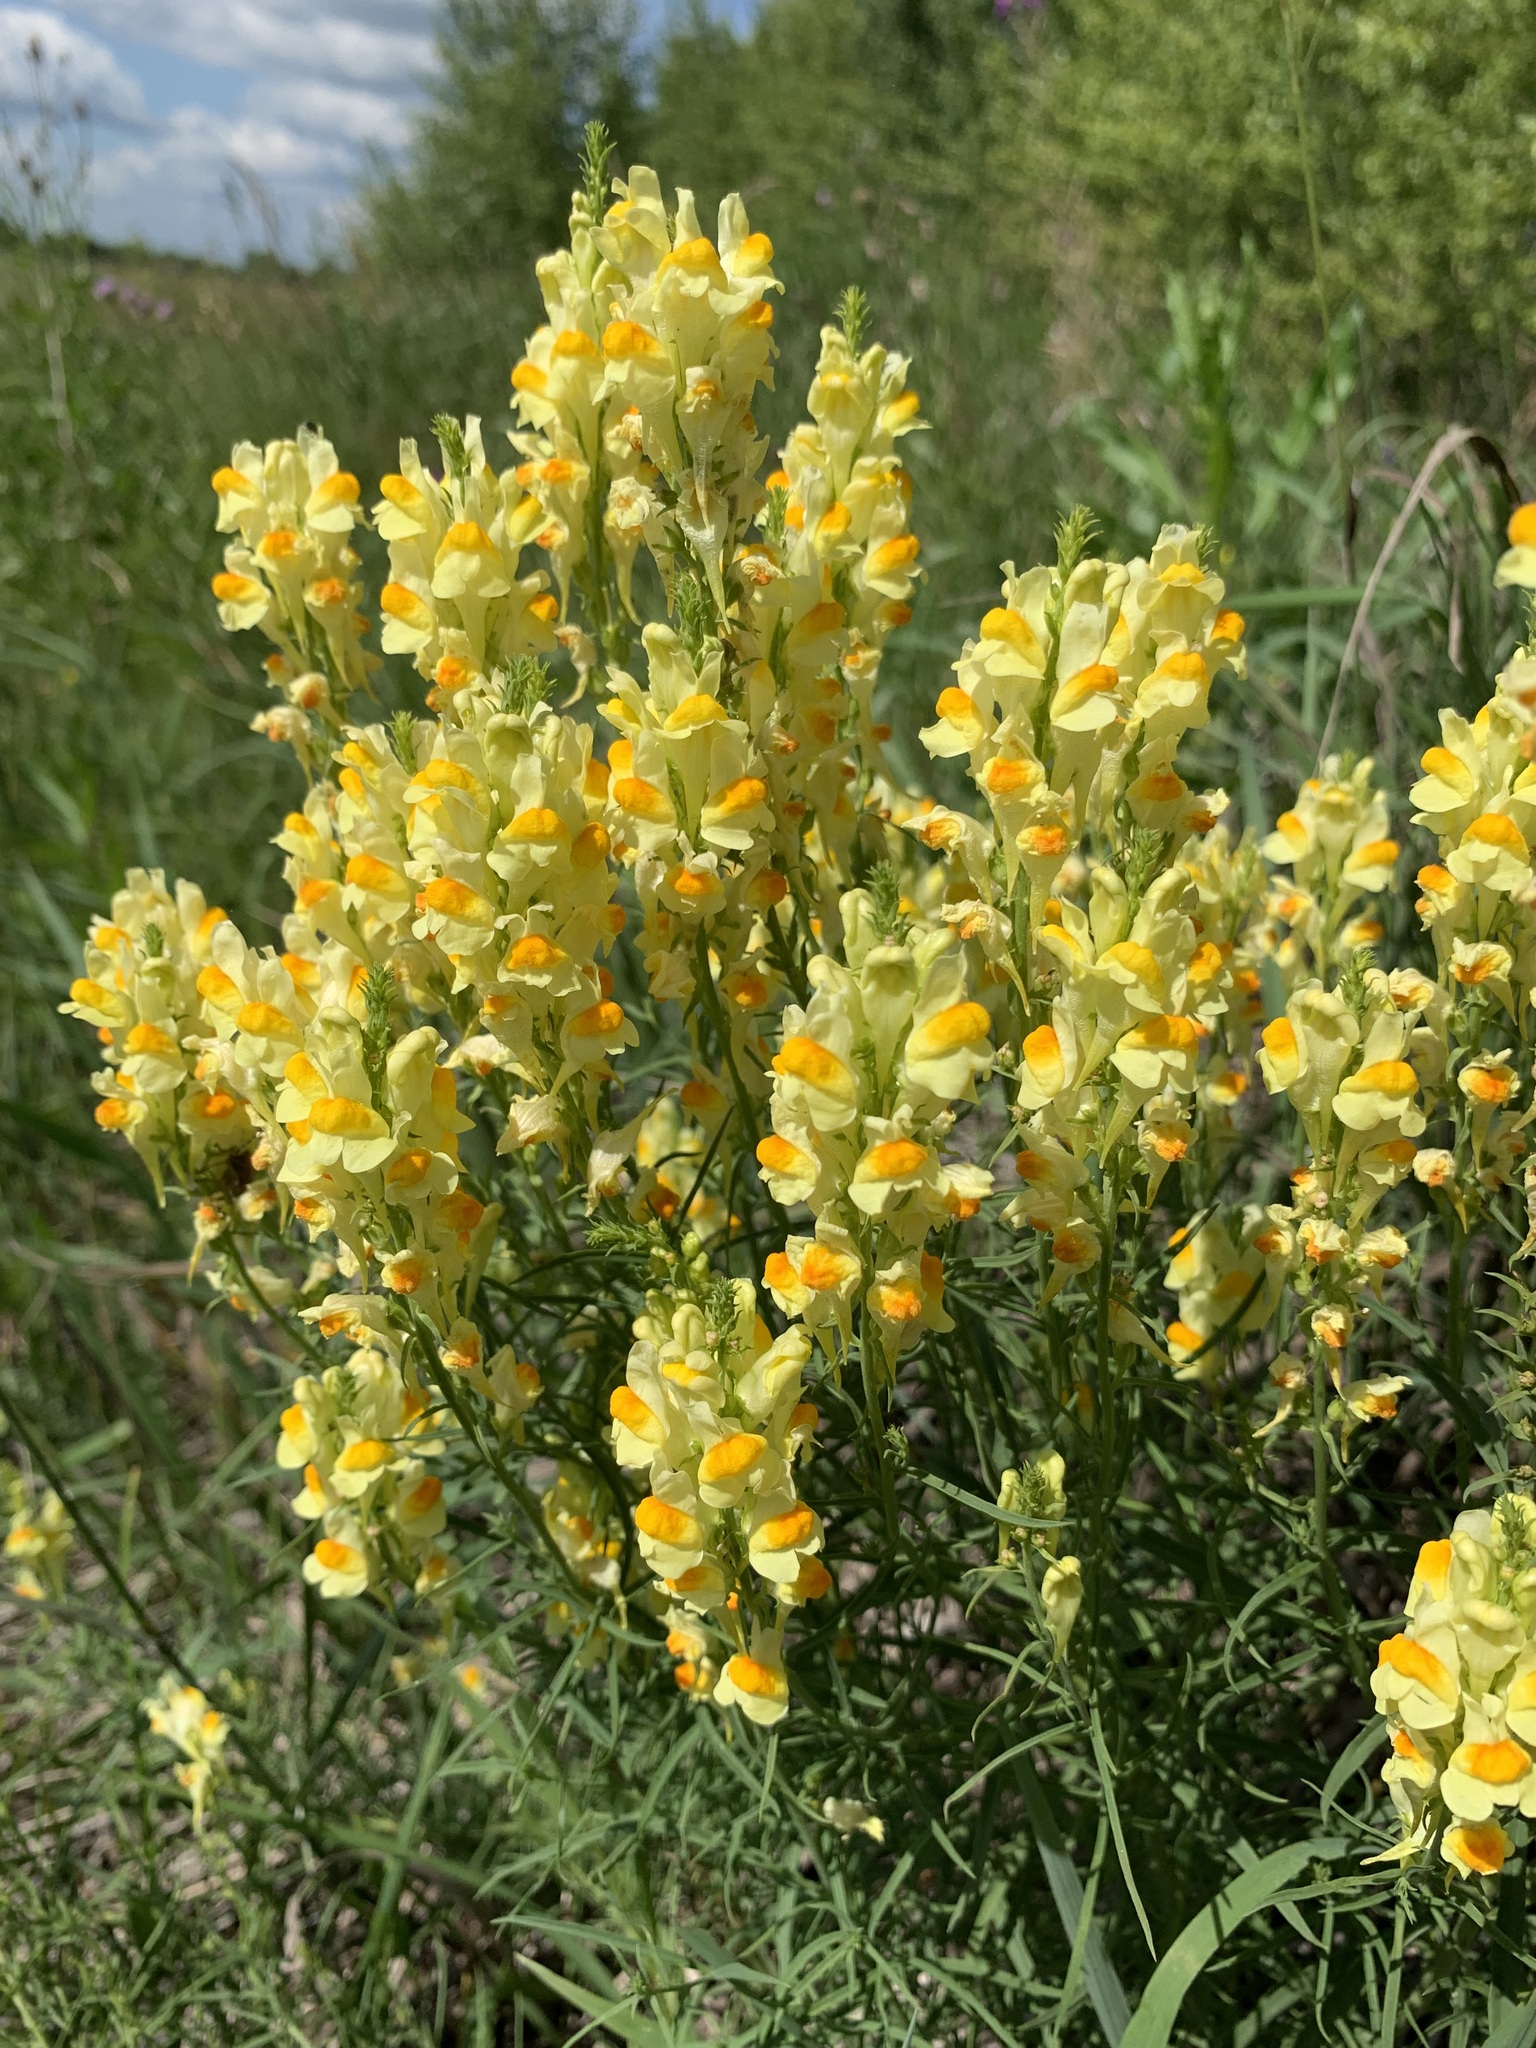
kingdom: Plantae
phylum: Tracheophyta
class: Magnoliopsida
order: Lamiales
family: Plantaginaceae
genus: Linaria
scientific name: Linaria vulgaris
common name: Butter and eggs
